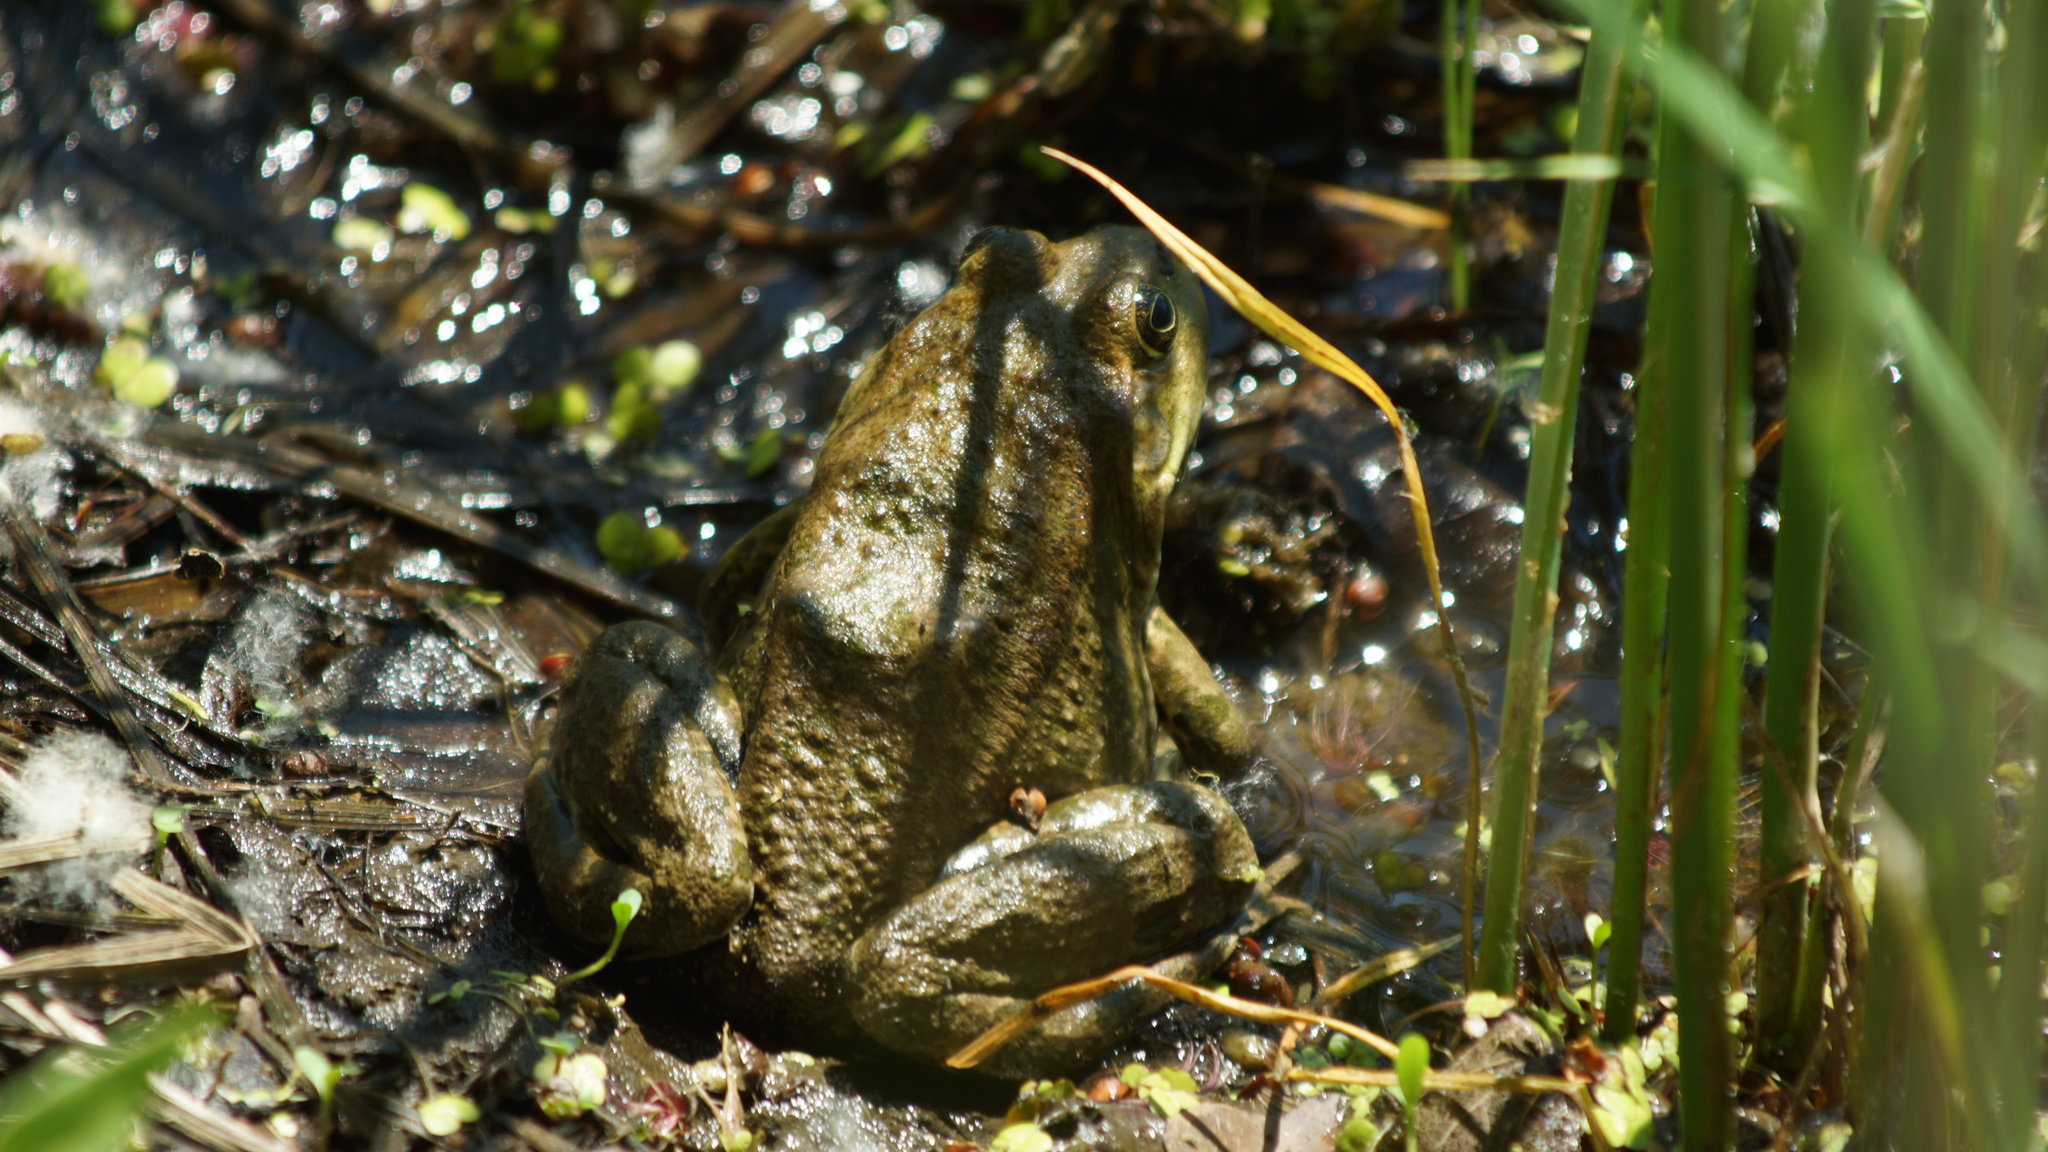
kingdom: Animalia
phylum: Chordata
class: Amphibia
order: Anura
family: Ranidae
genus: Pelophylax
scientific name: Pelophylax ridibundus
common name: Marsh frog
